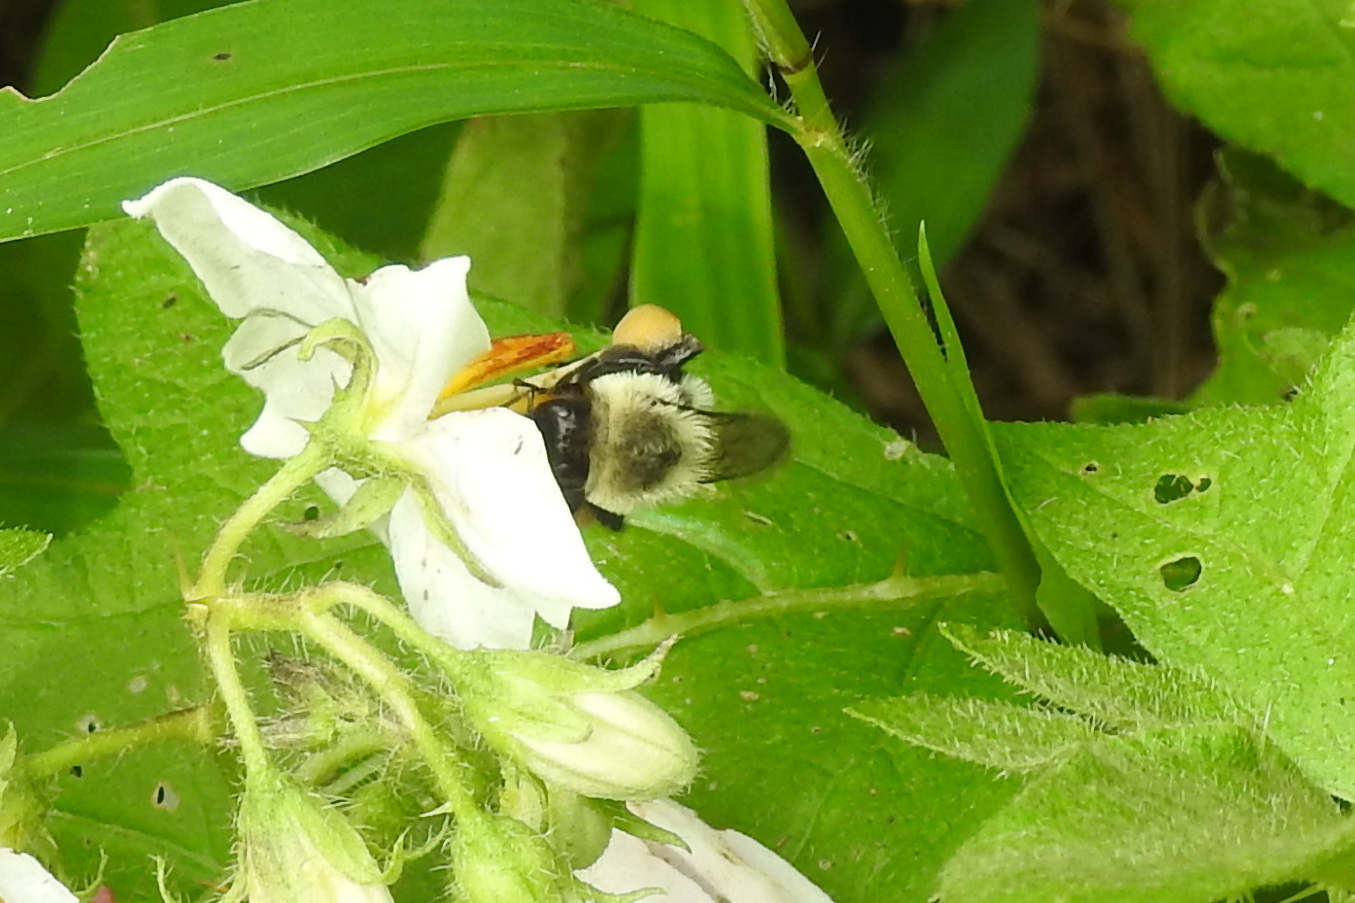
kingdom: Animalia
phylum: Arthropoda
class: Insecta
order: Hymenoptera
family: Apidae
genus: Bombus
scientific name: Bombus impatiens
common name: Common eastern bumble bee
